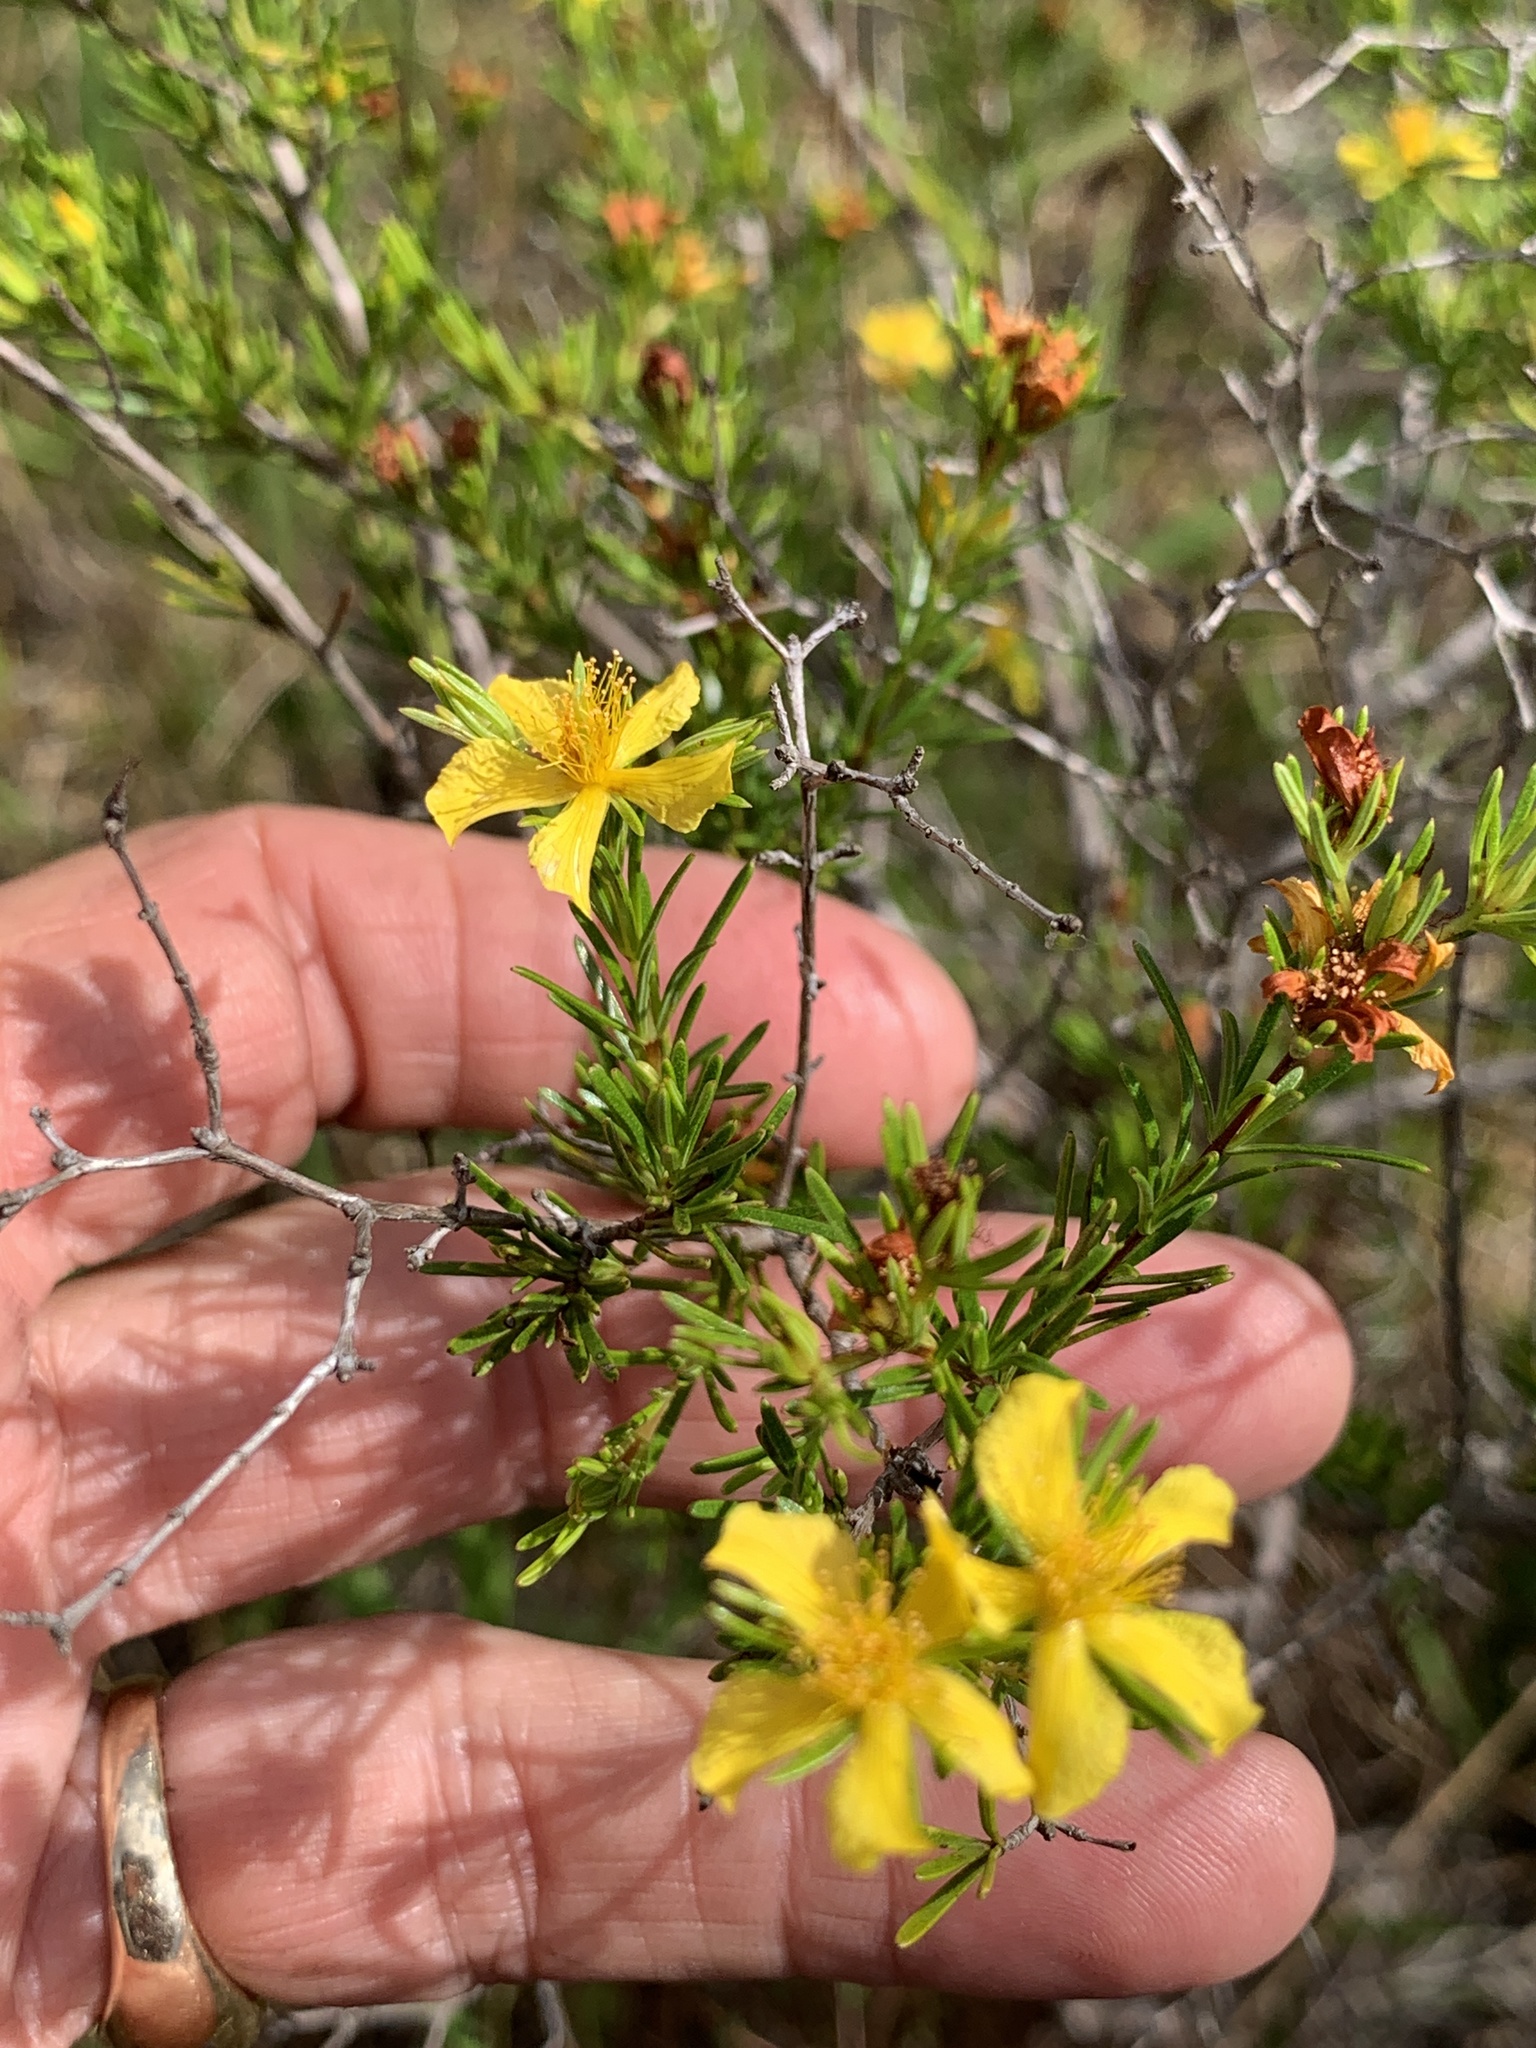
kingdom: Plantae
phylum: Tracheophyta
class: Magnoliopsida
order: Malpighiales
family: Hypericaceae
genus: Hypericum
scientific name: Hypericum fasciculatum
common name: Peelbark st. john's wort
